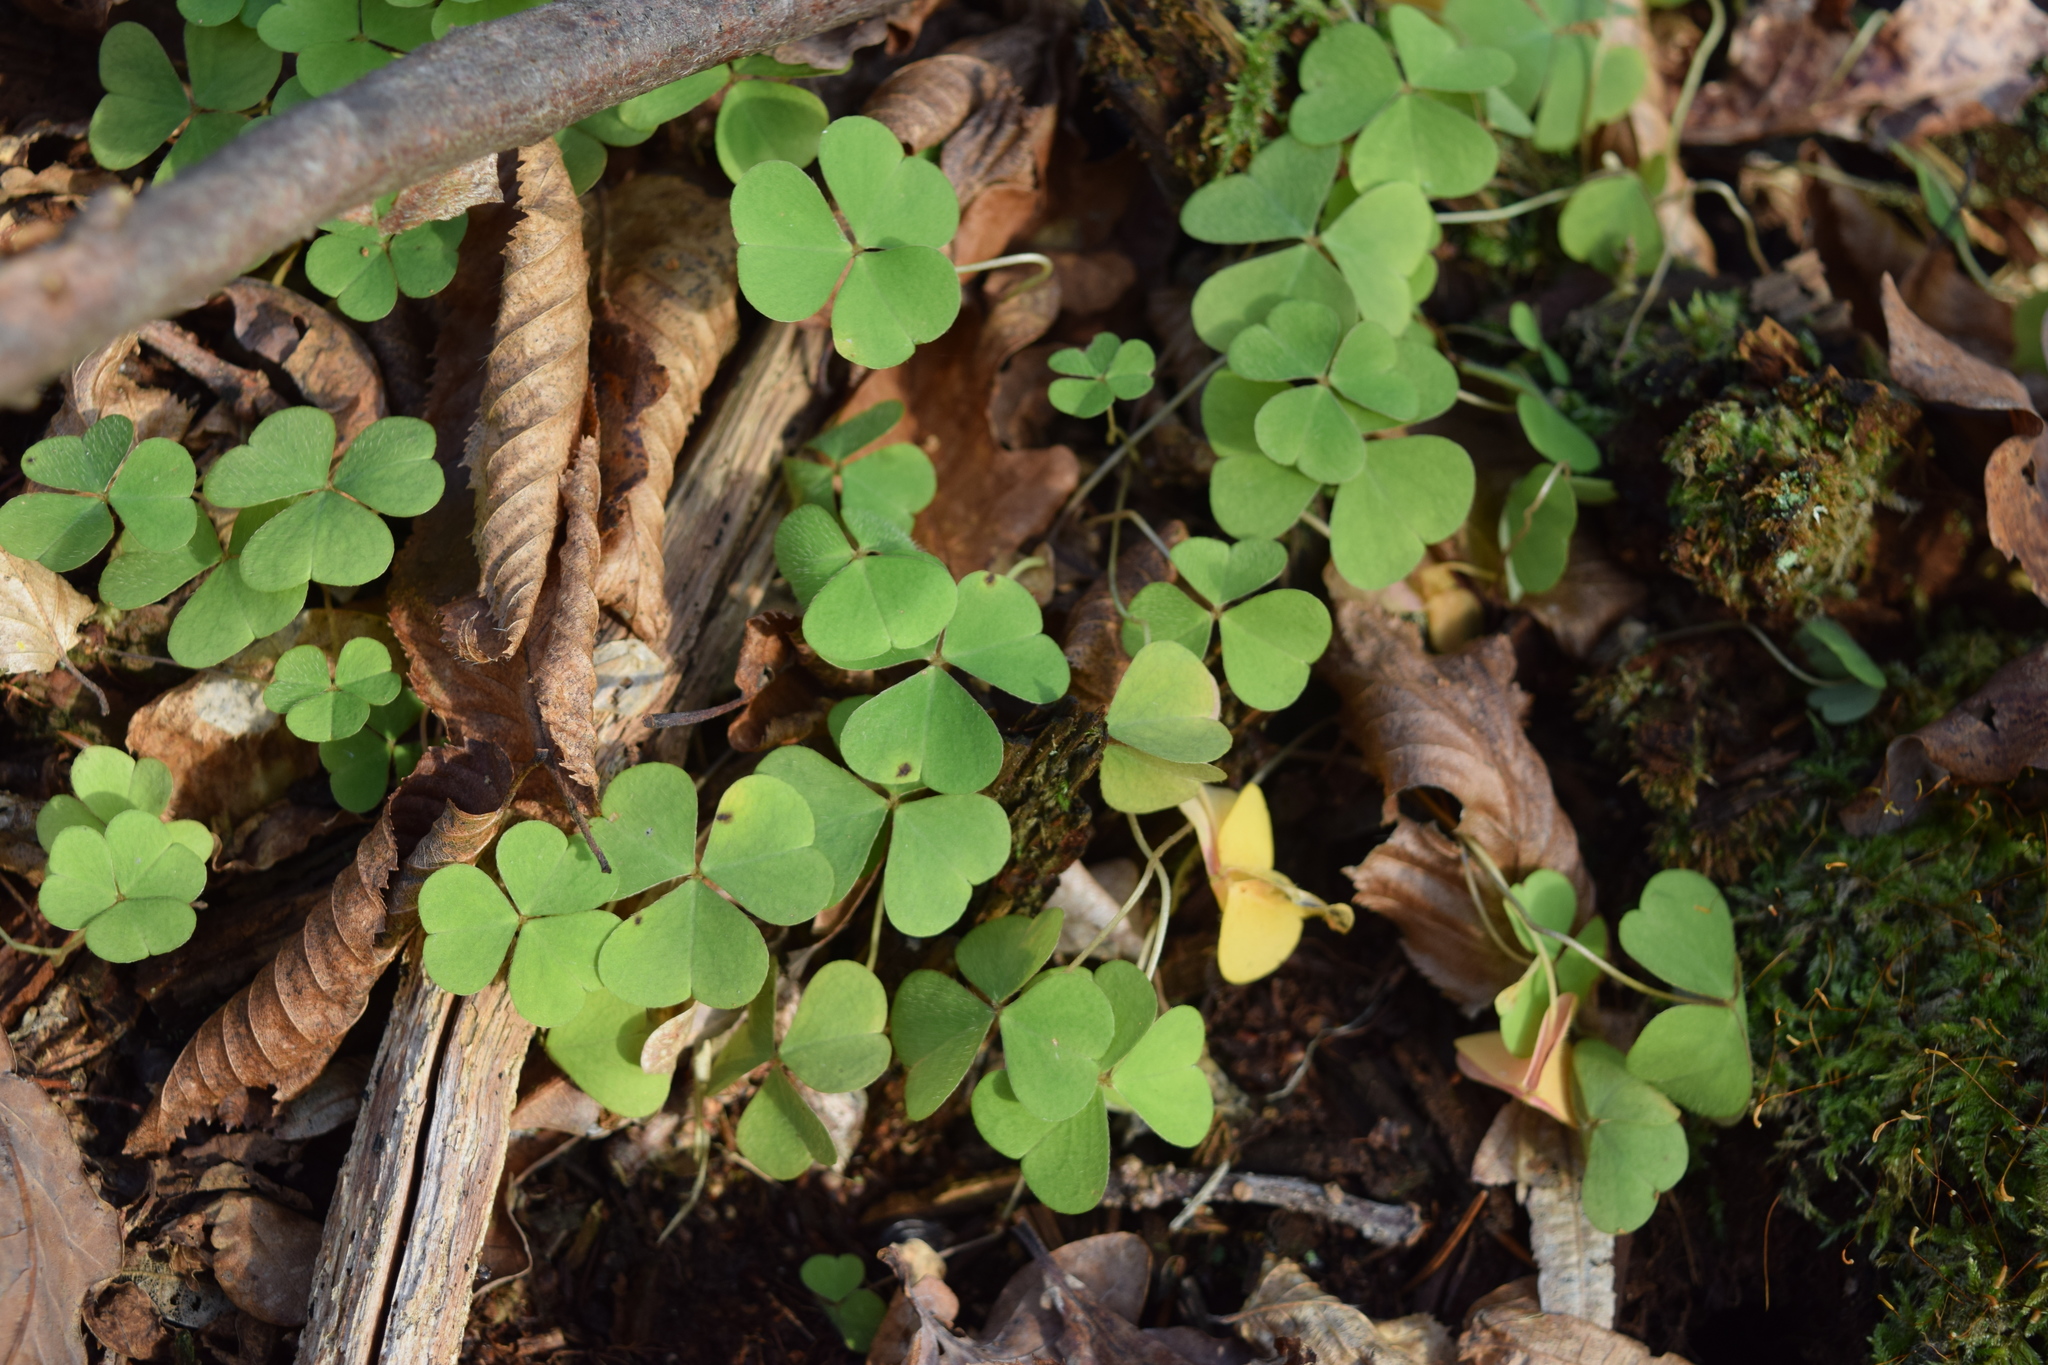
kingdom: Plantae
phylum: Tracheophyta
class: Magnoliopsida
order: Oxalidales
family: Oxalidaceae
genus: Oxalis
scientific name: Oxalis acetosella
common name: Wood-sorrel
